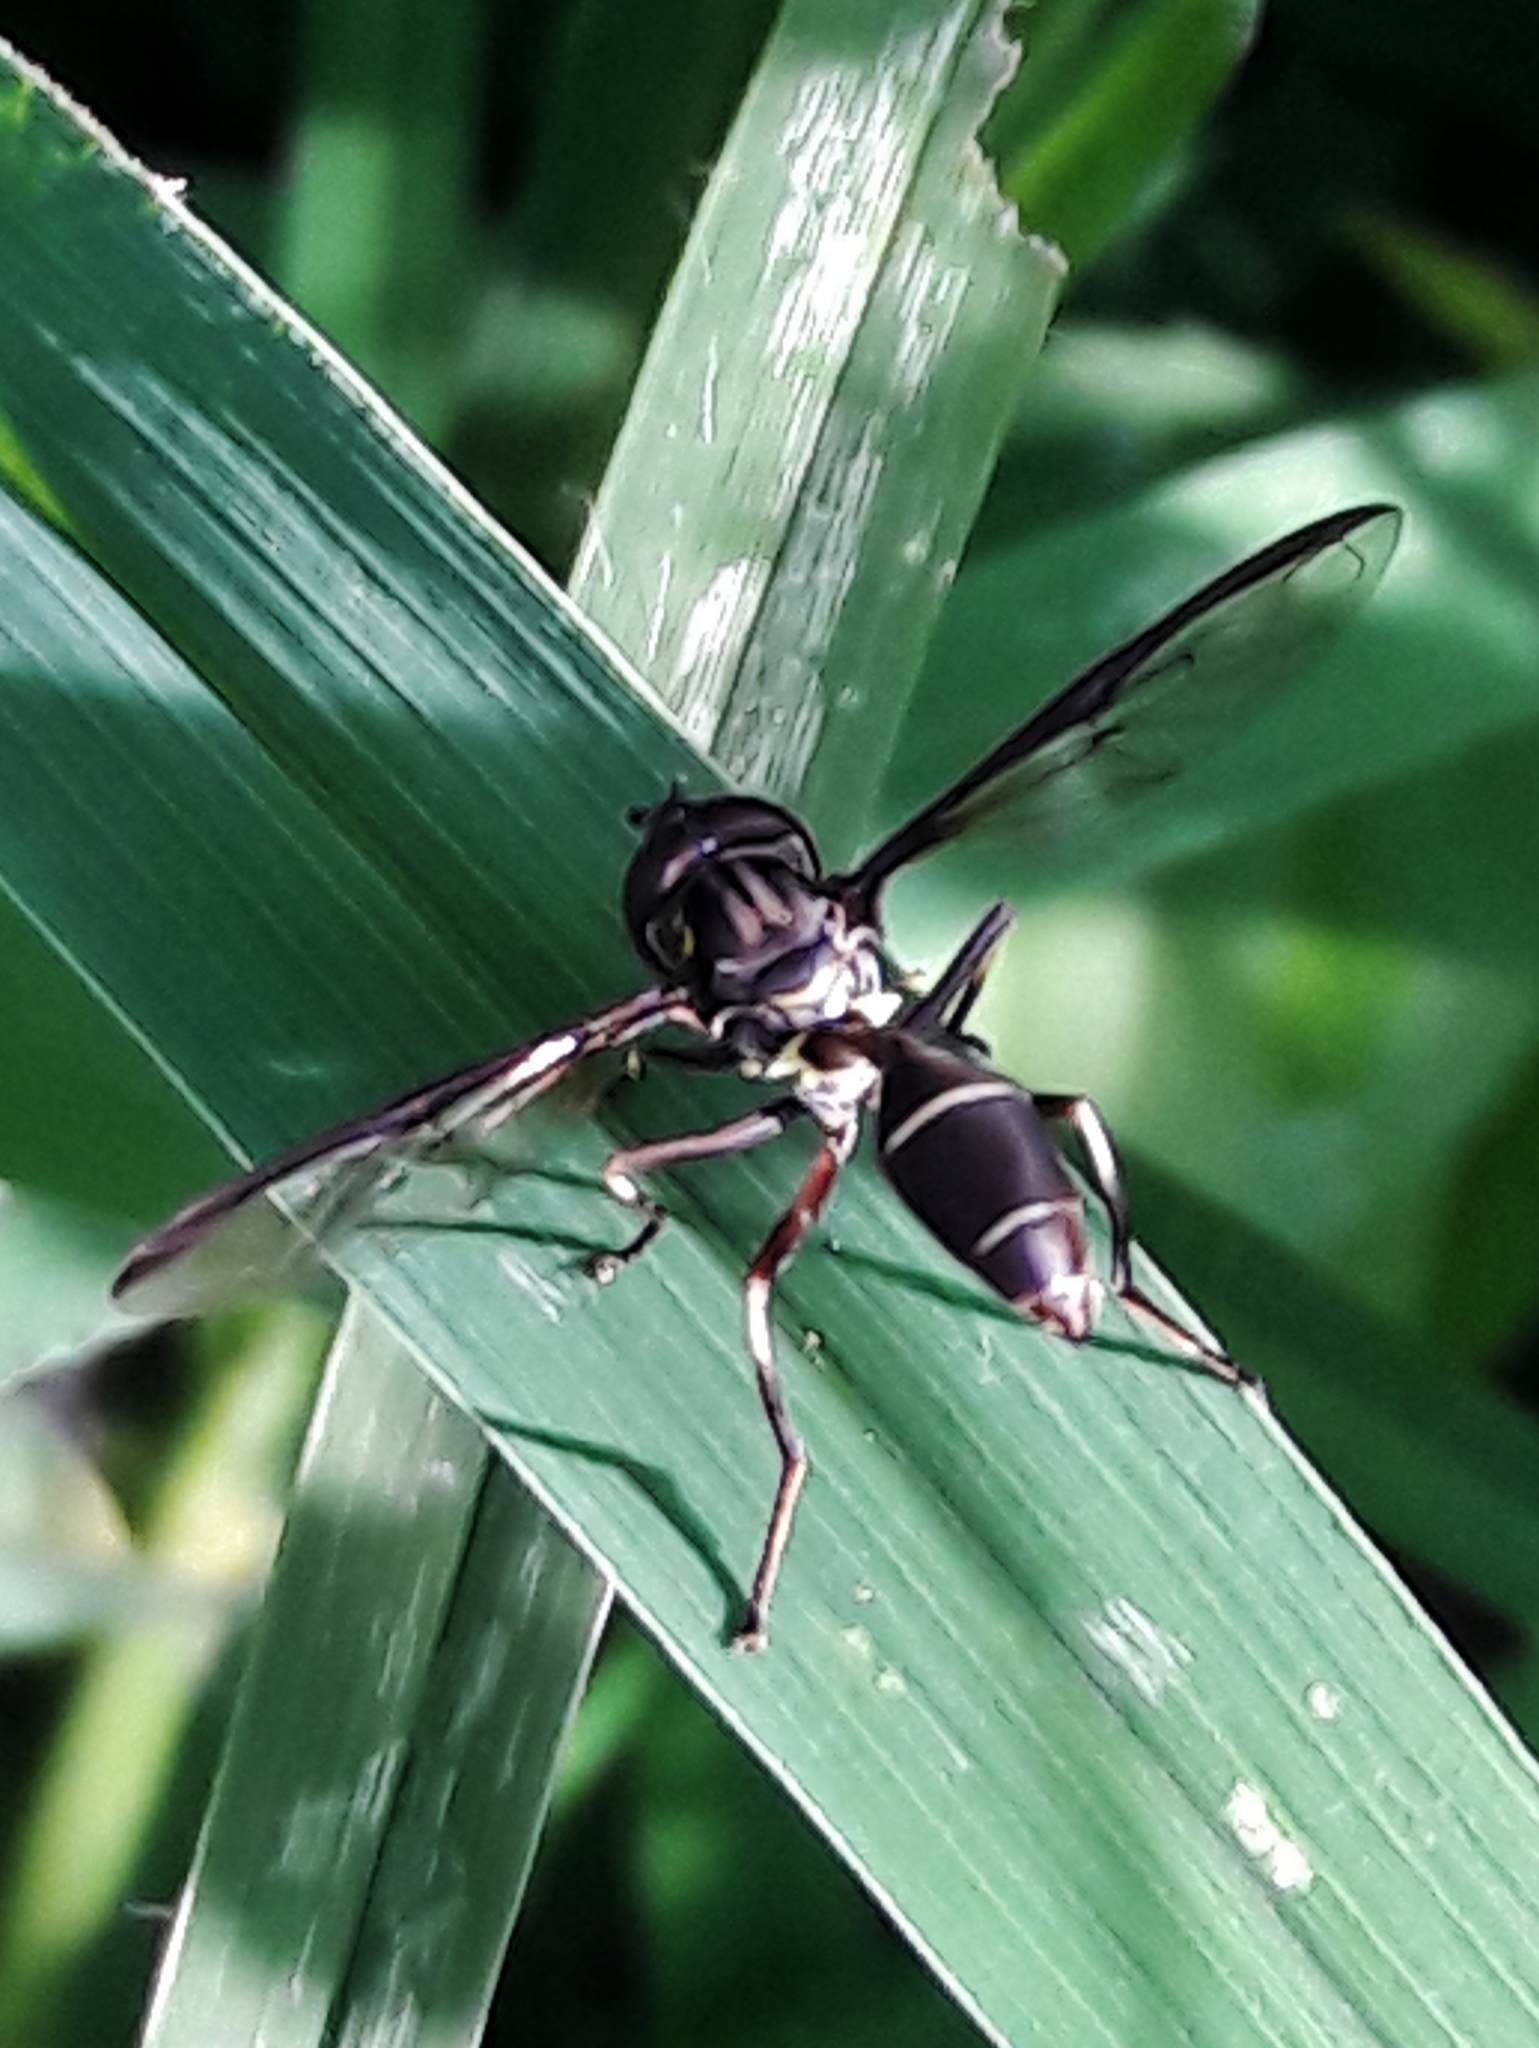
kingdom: Animalia
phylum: Arthropoda
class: Insecta
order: Diptera
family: Syrphidae
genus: Salpingogaster
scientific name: Salpingogaster nigra
